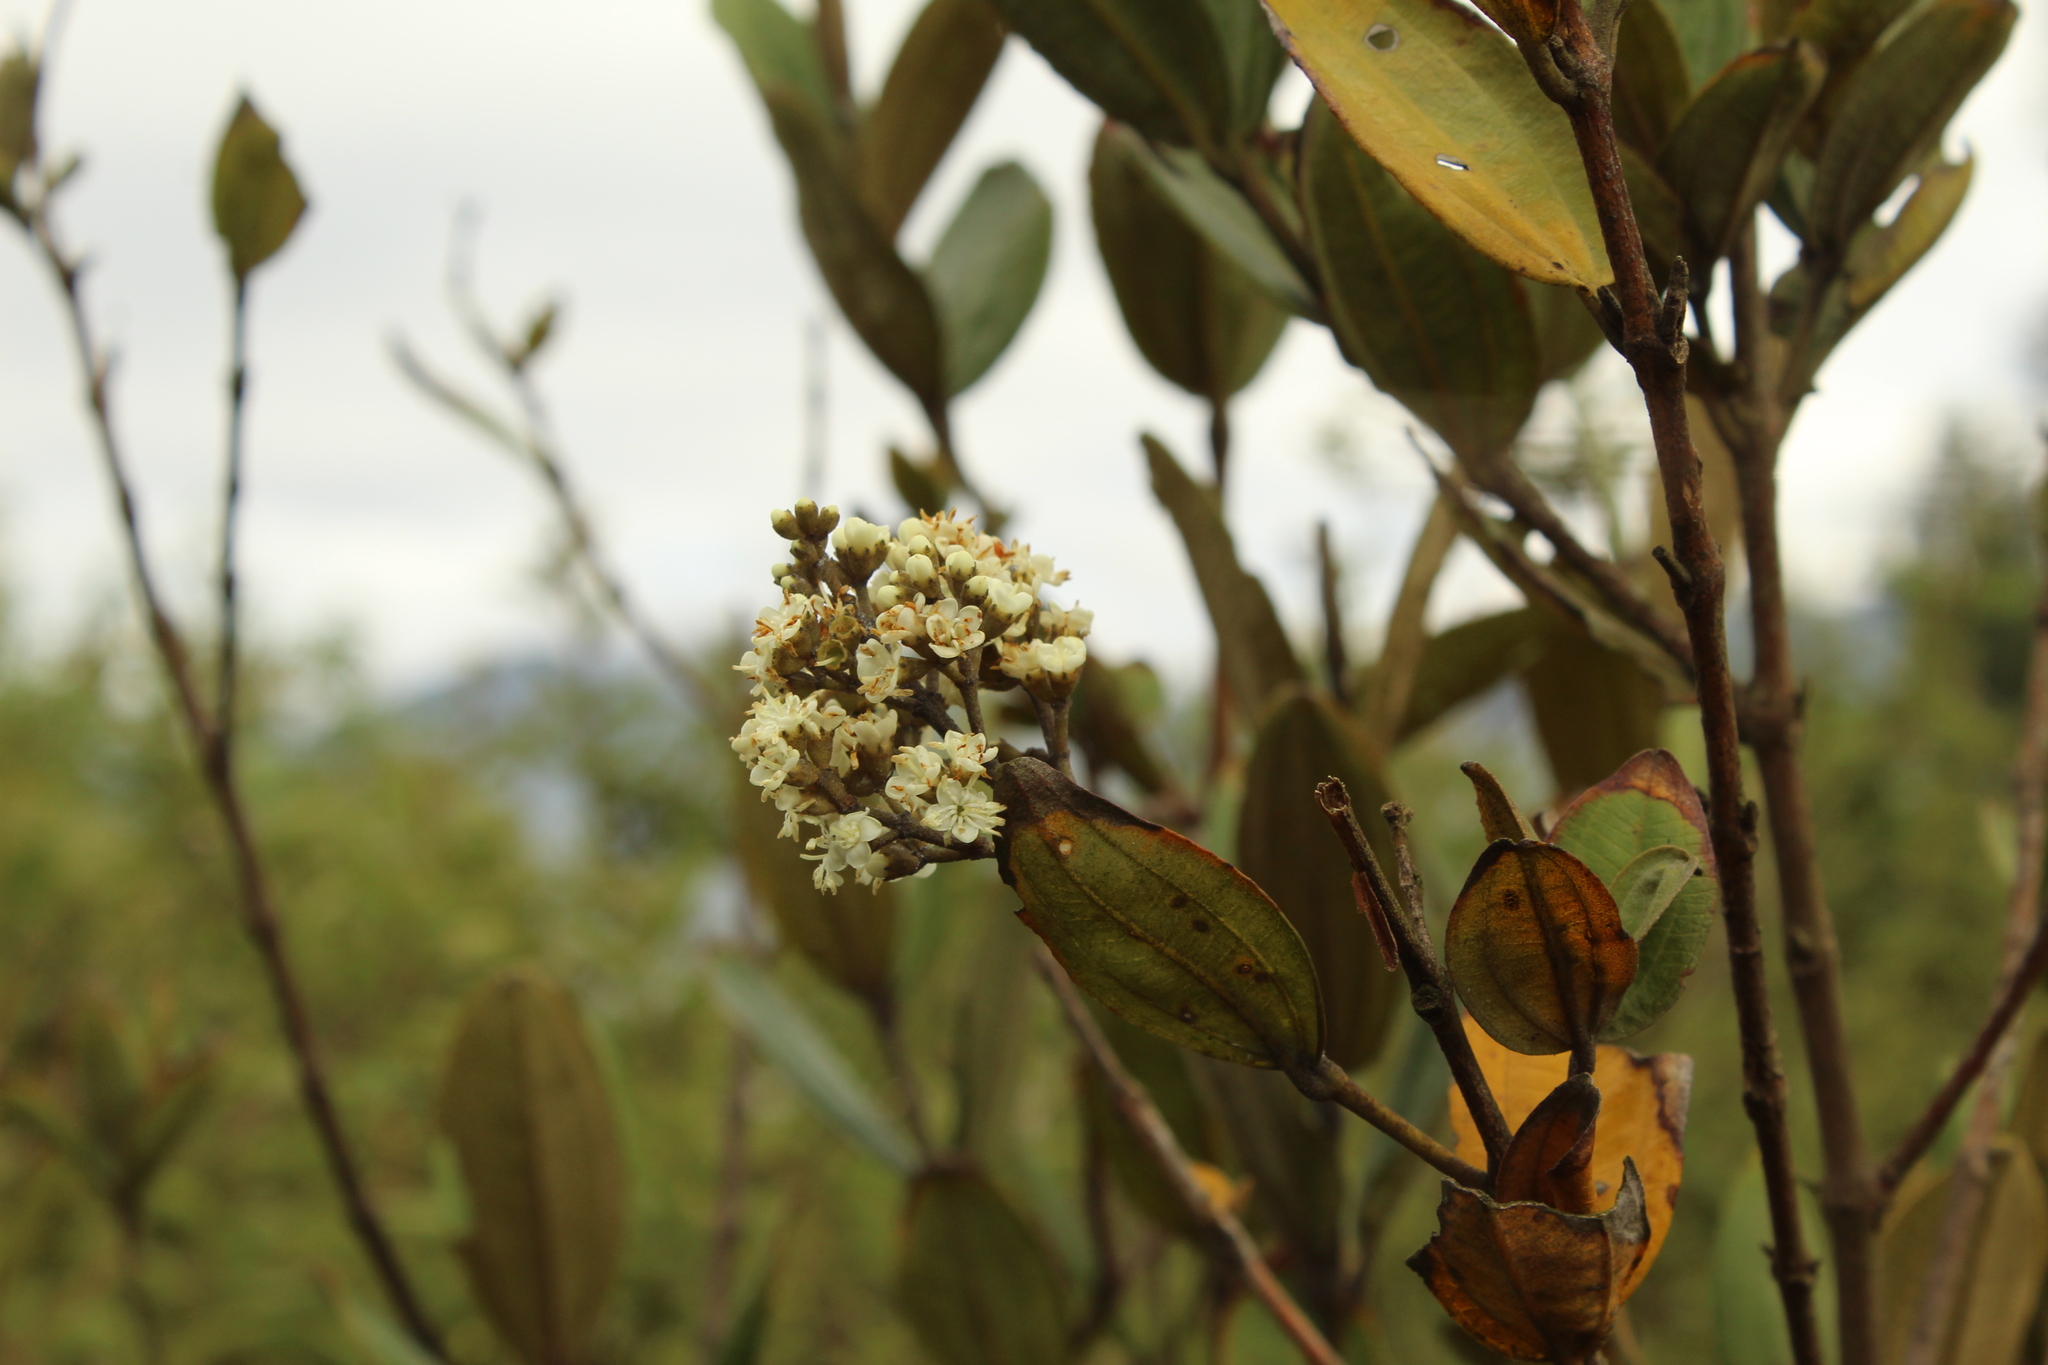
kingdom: Plantae
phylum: Tracheophyta
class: Magnoliopsida
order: Myrtales
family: Melastomataceae
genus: Miconia
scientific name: Miconia squamulosa
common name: Squamulose maya
